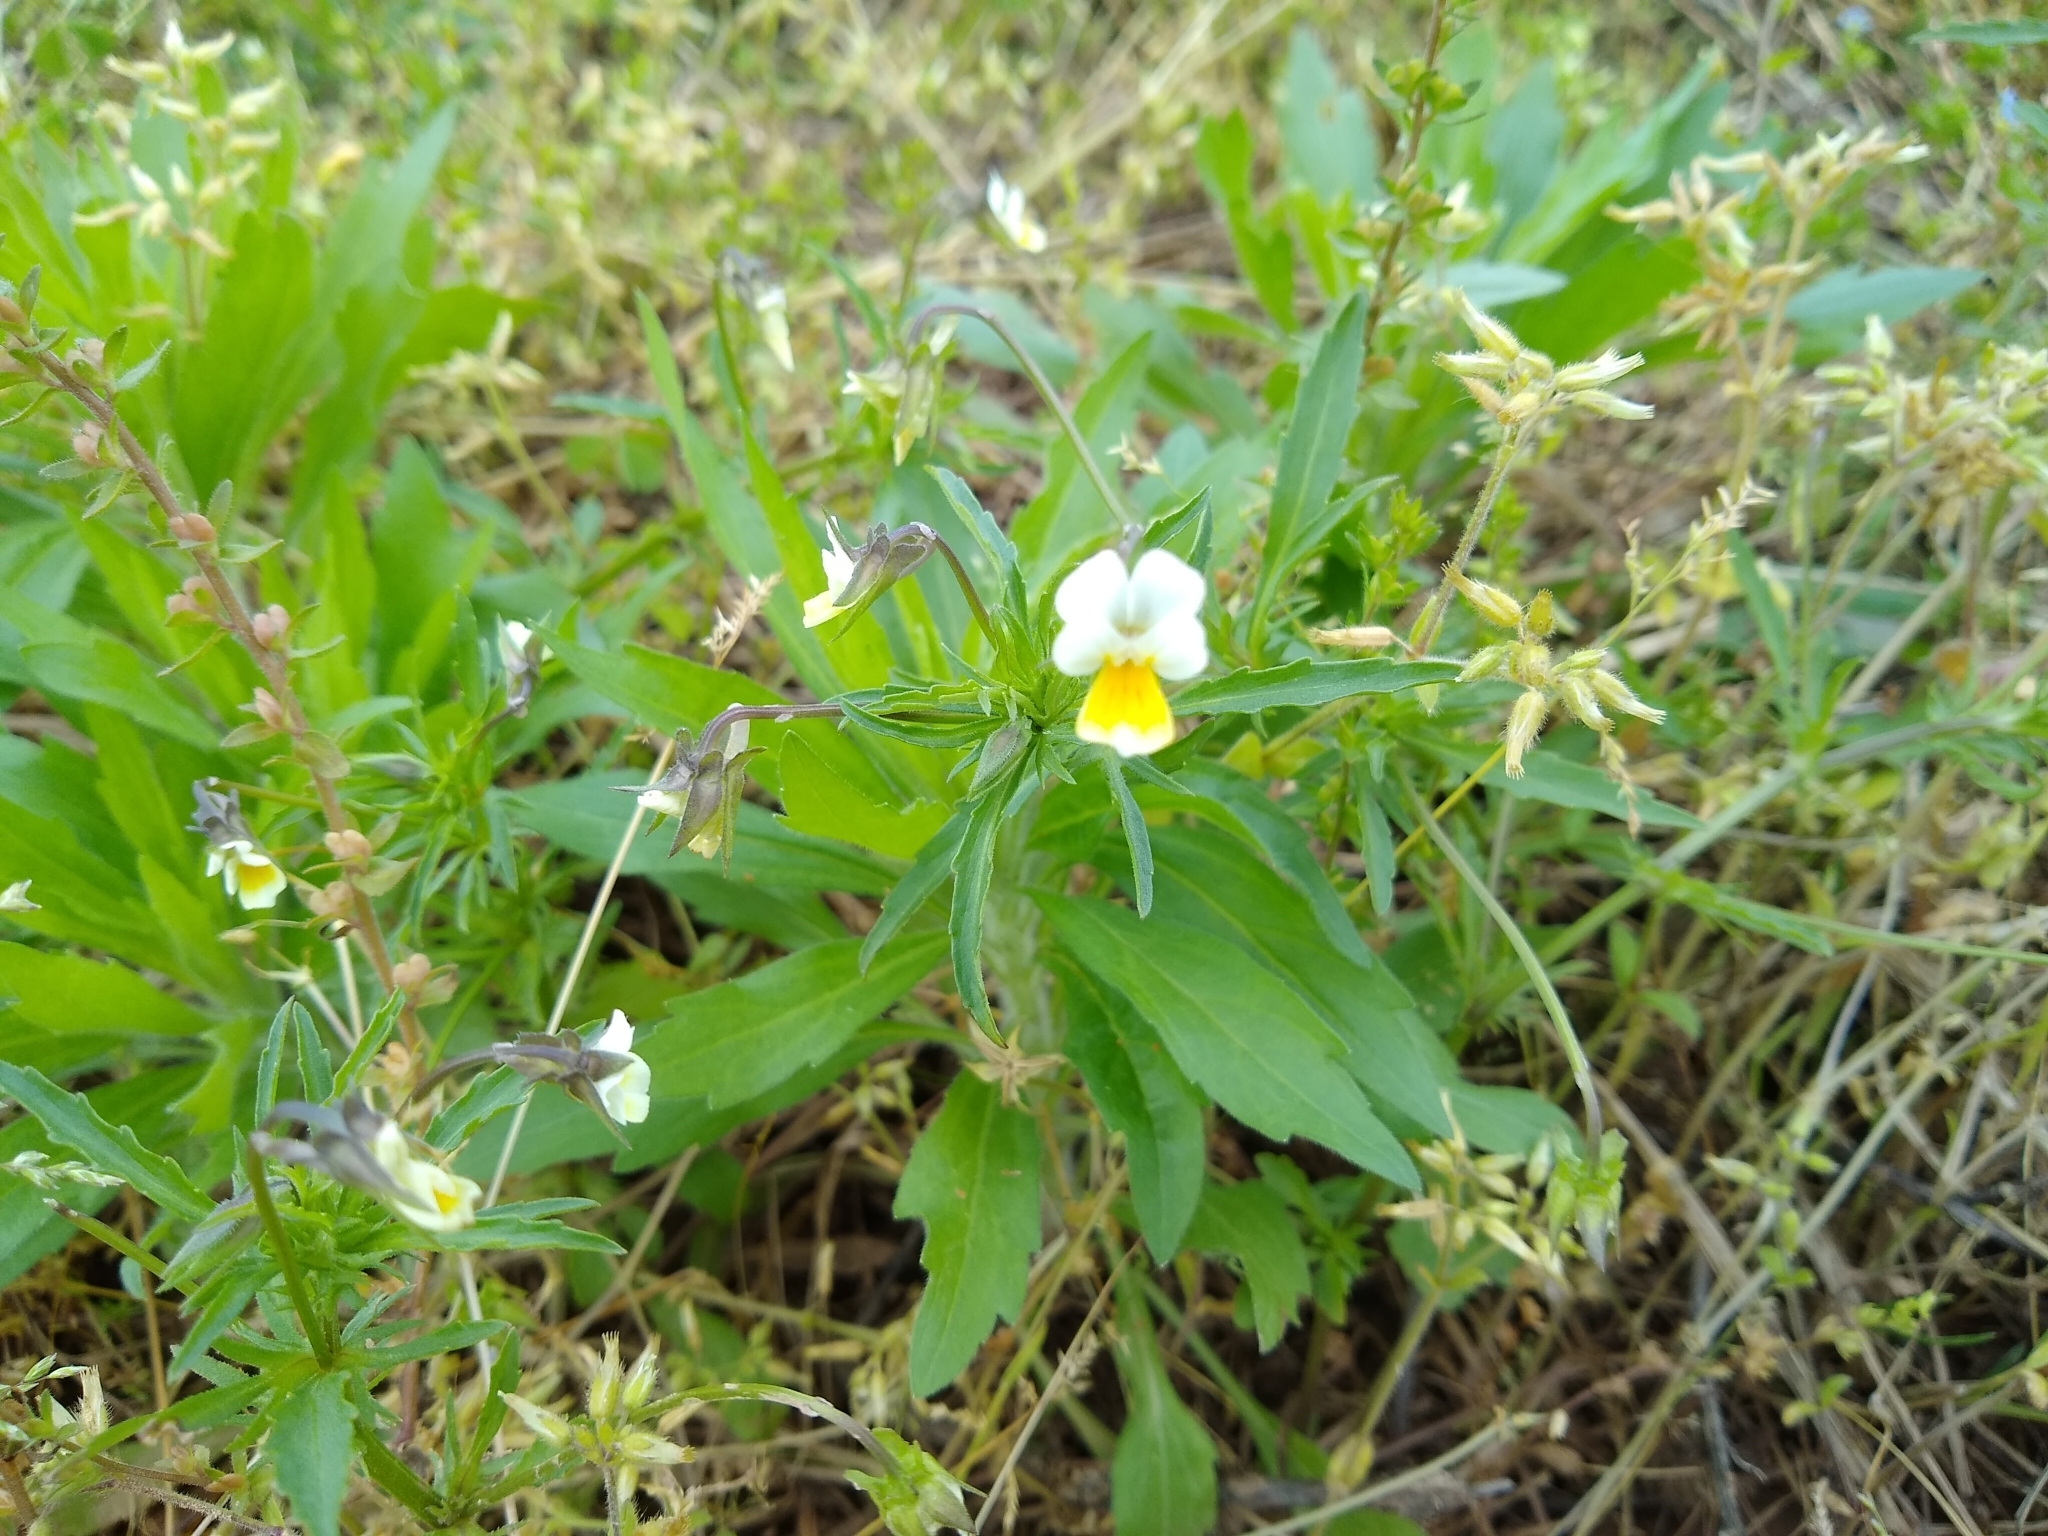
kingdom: Plantae
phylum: Tracheophyta
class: Magnoliopsida
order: Malpighiales
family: Violaceae
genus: Viola
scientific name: Viola arvensis
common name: Field pansy
